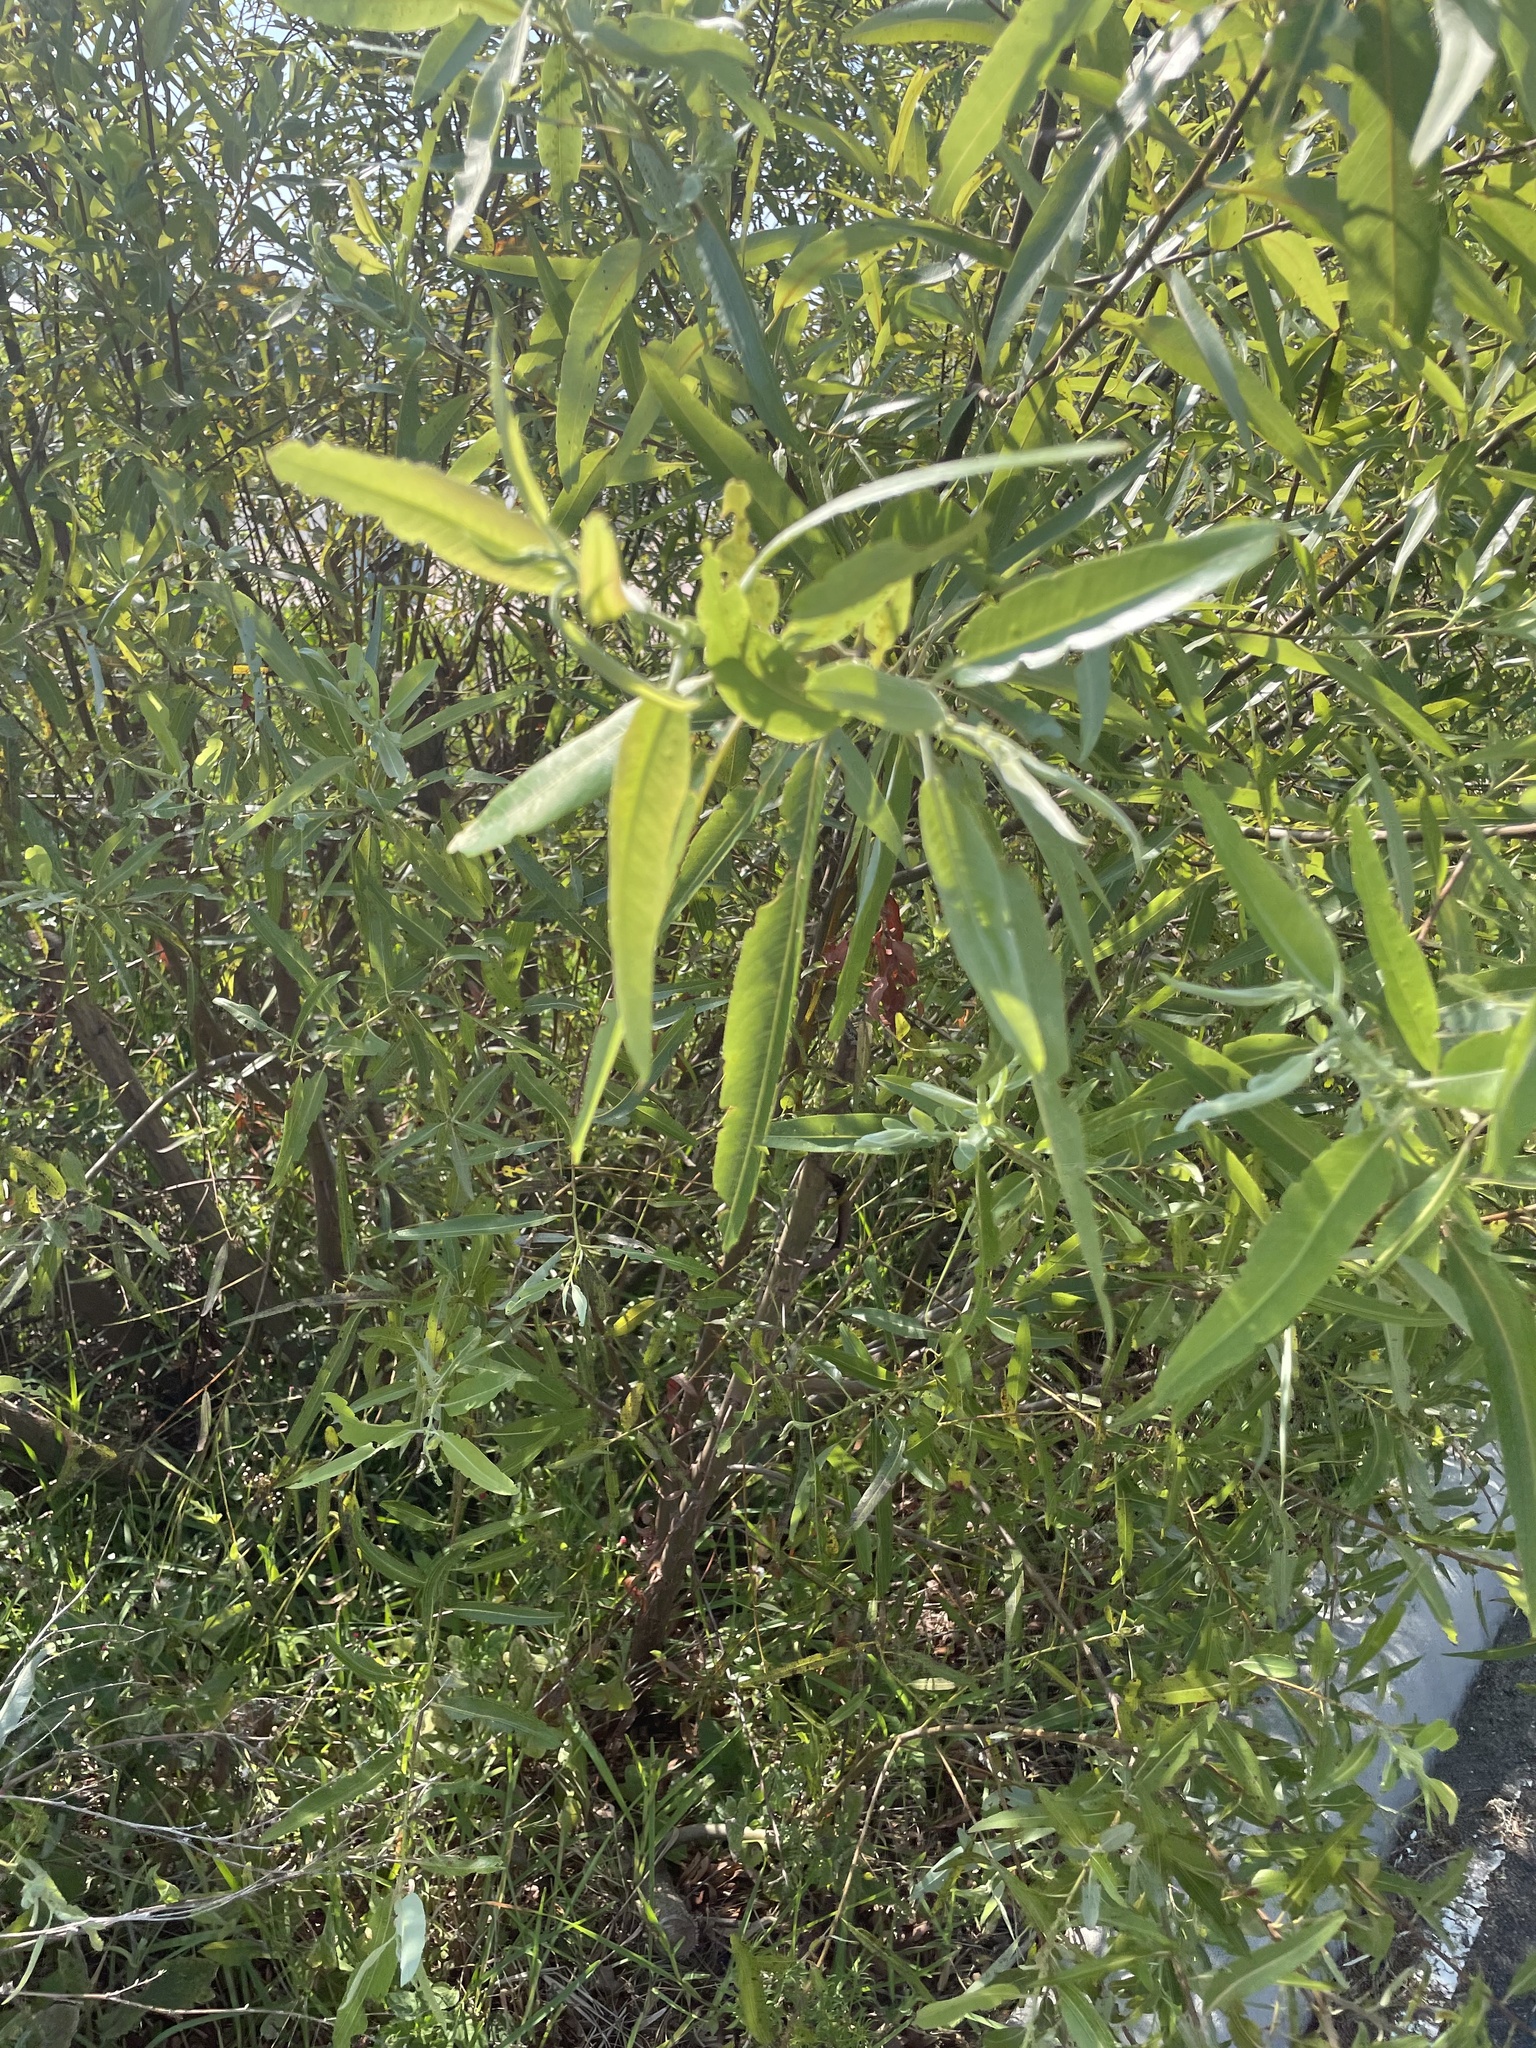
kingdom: Plantae
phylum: Tracheophyta
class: Magnoliopsida
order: Malpighiales
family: Salicaceae
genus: Salix
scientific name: Salix caroliniana
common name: Carolina willow
